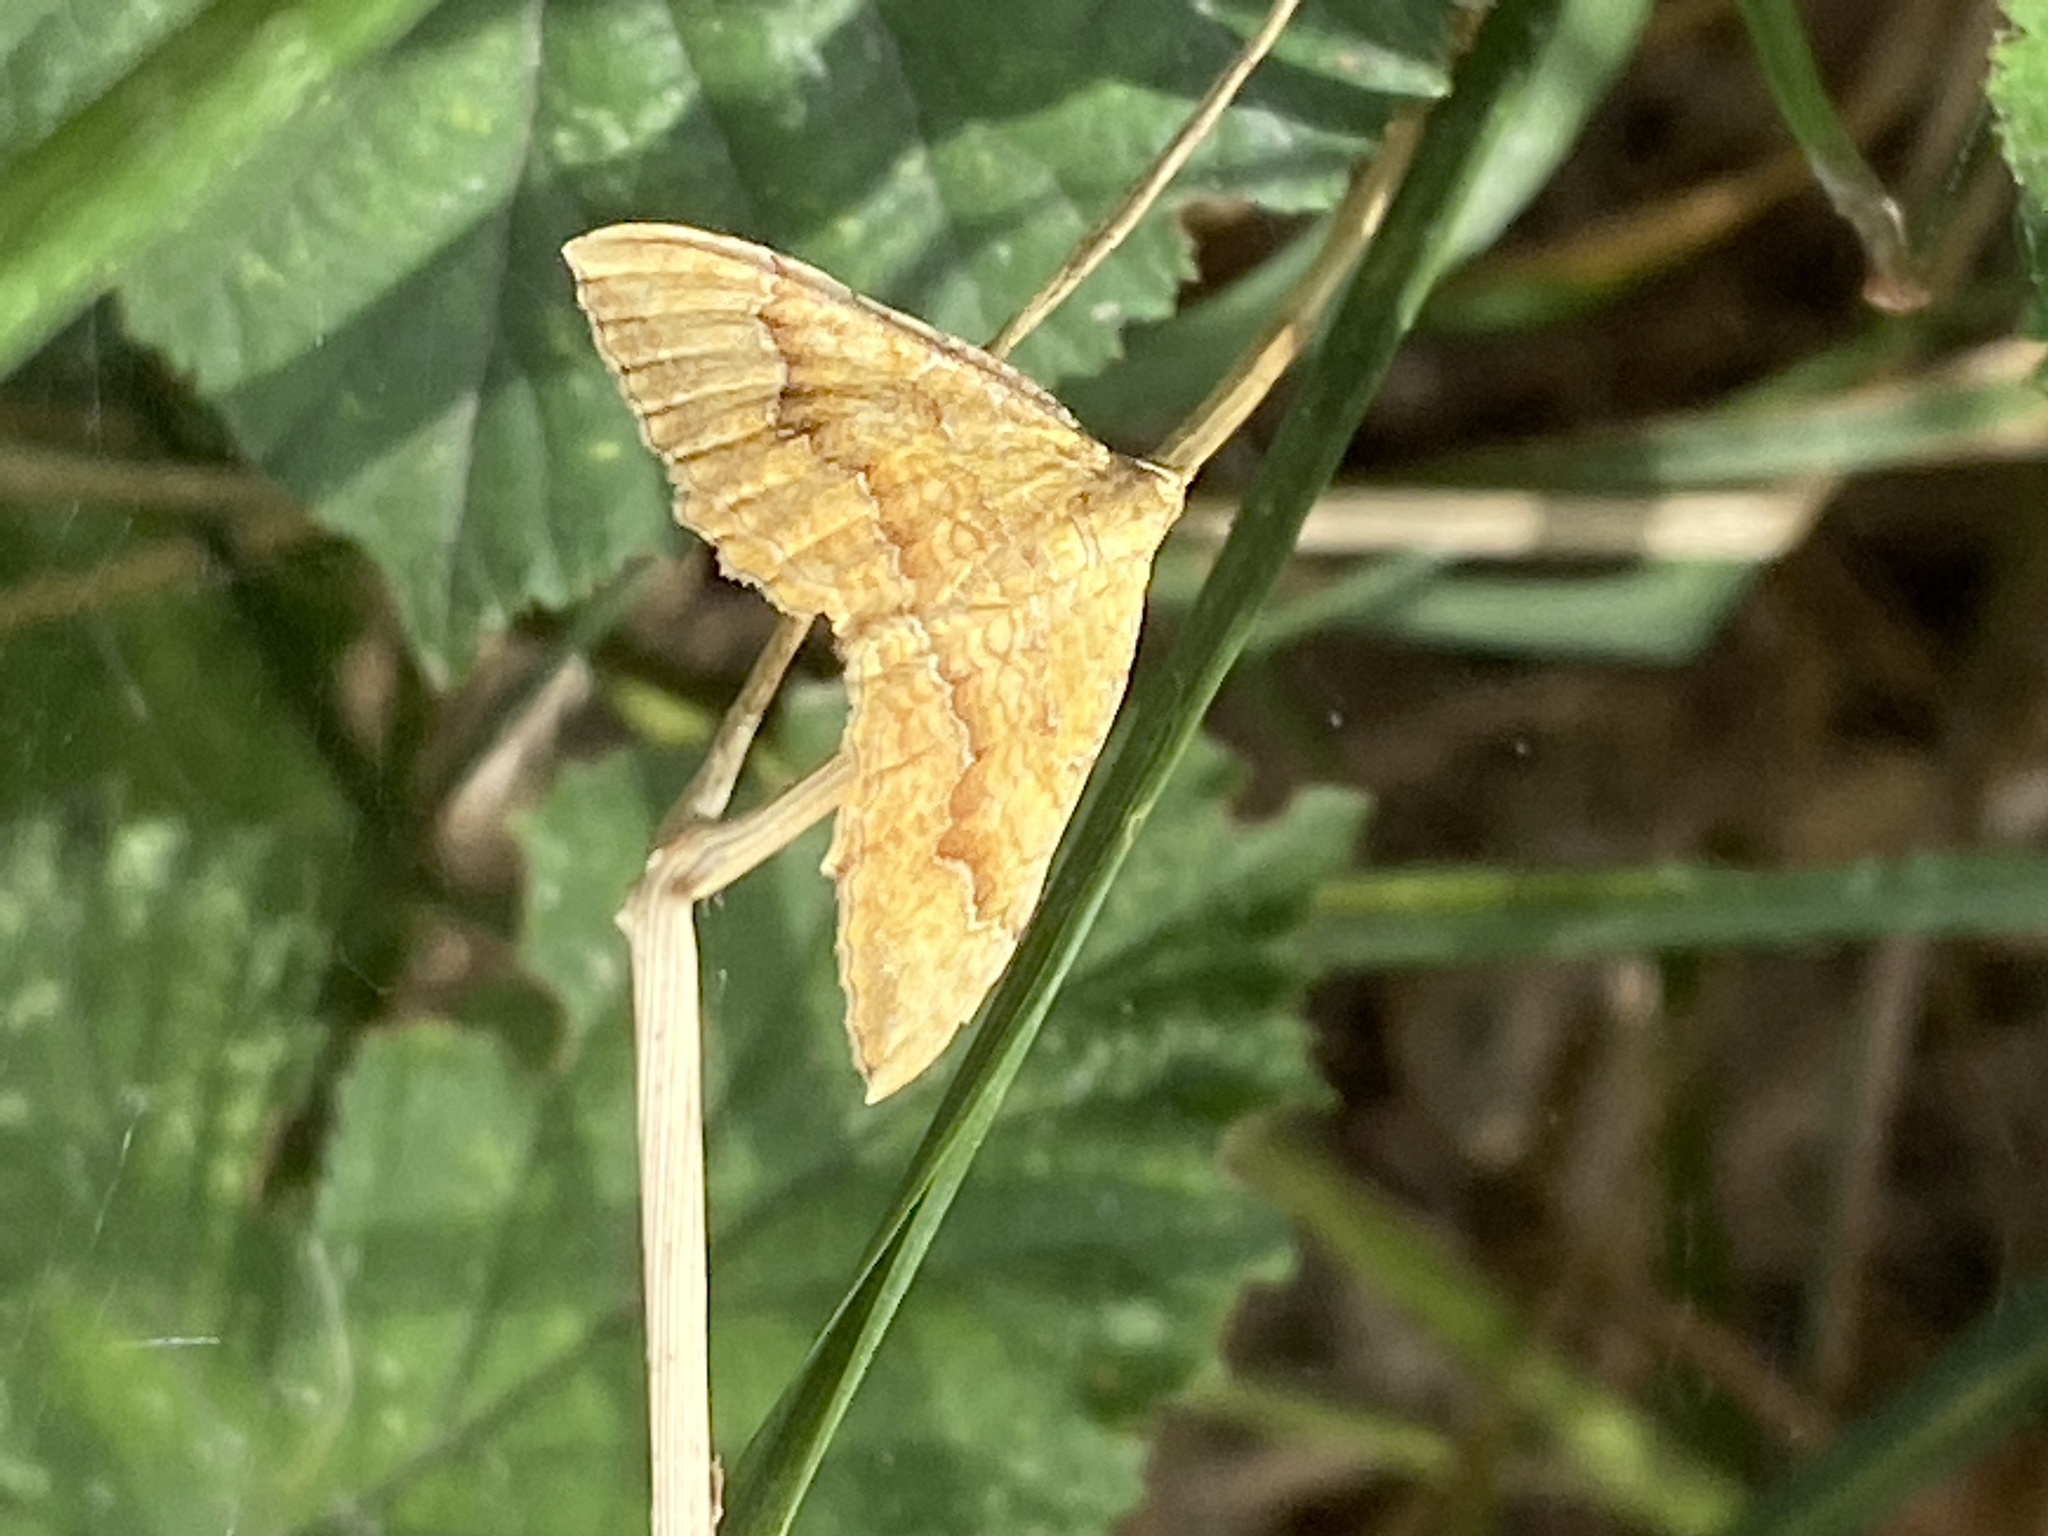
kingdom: Animalia
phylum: Arthropoda
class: Insecta
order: Lepidoptera
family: Geometridae
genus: Camptogramma
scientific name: Camptogramma bilineata
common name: Yellow shell
